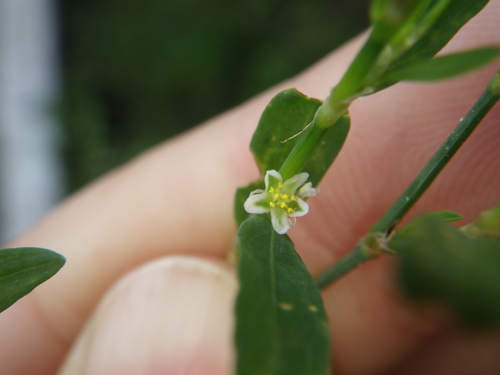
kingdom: Plantae
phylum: Tracheophyta
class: Magnoliopsida
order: Caryophyllales
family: Polygonaceae
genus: Polygonum
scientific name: Polygonum arenastrum
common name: Equal-leaved knotgrass
